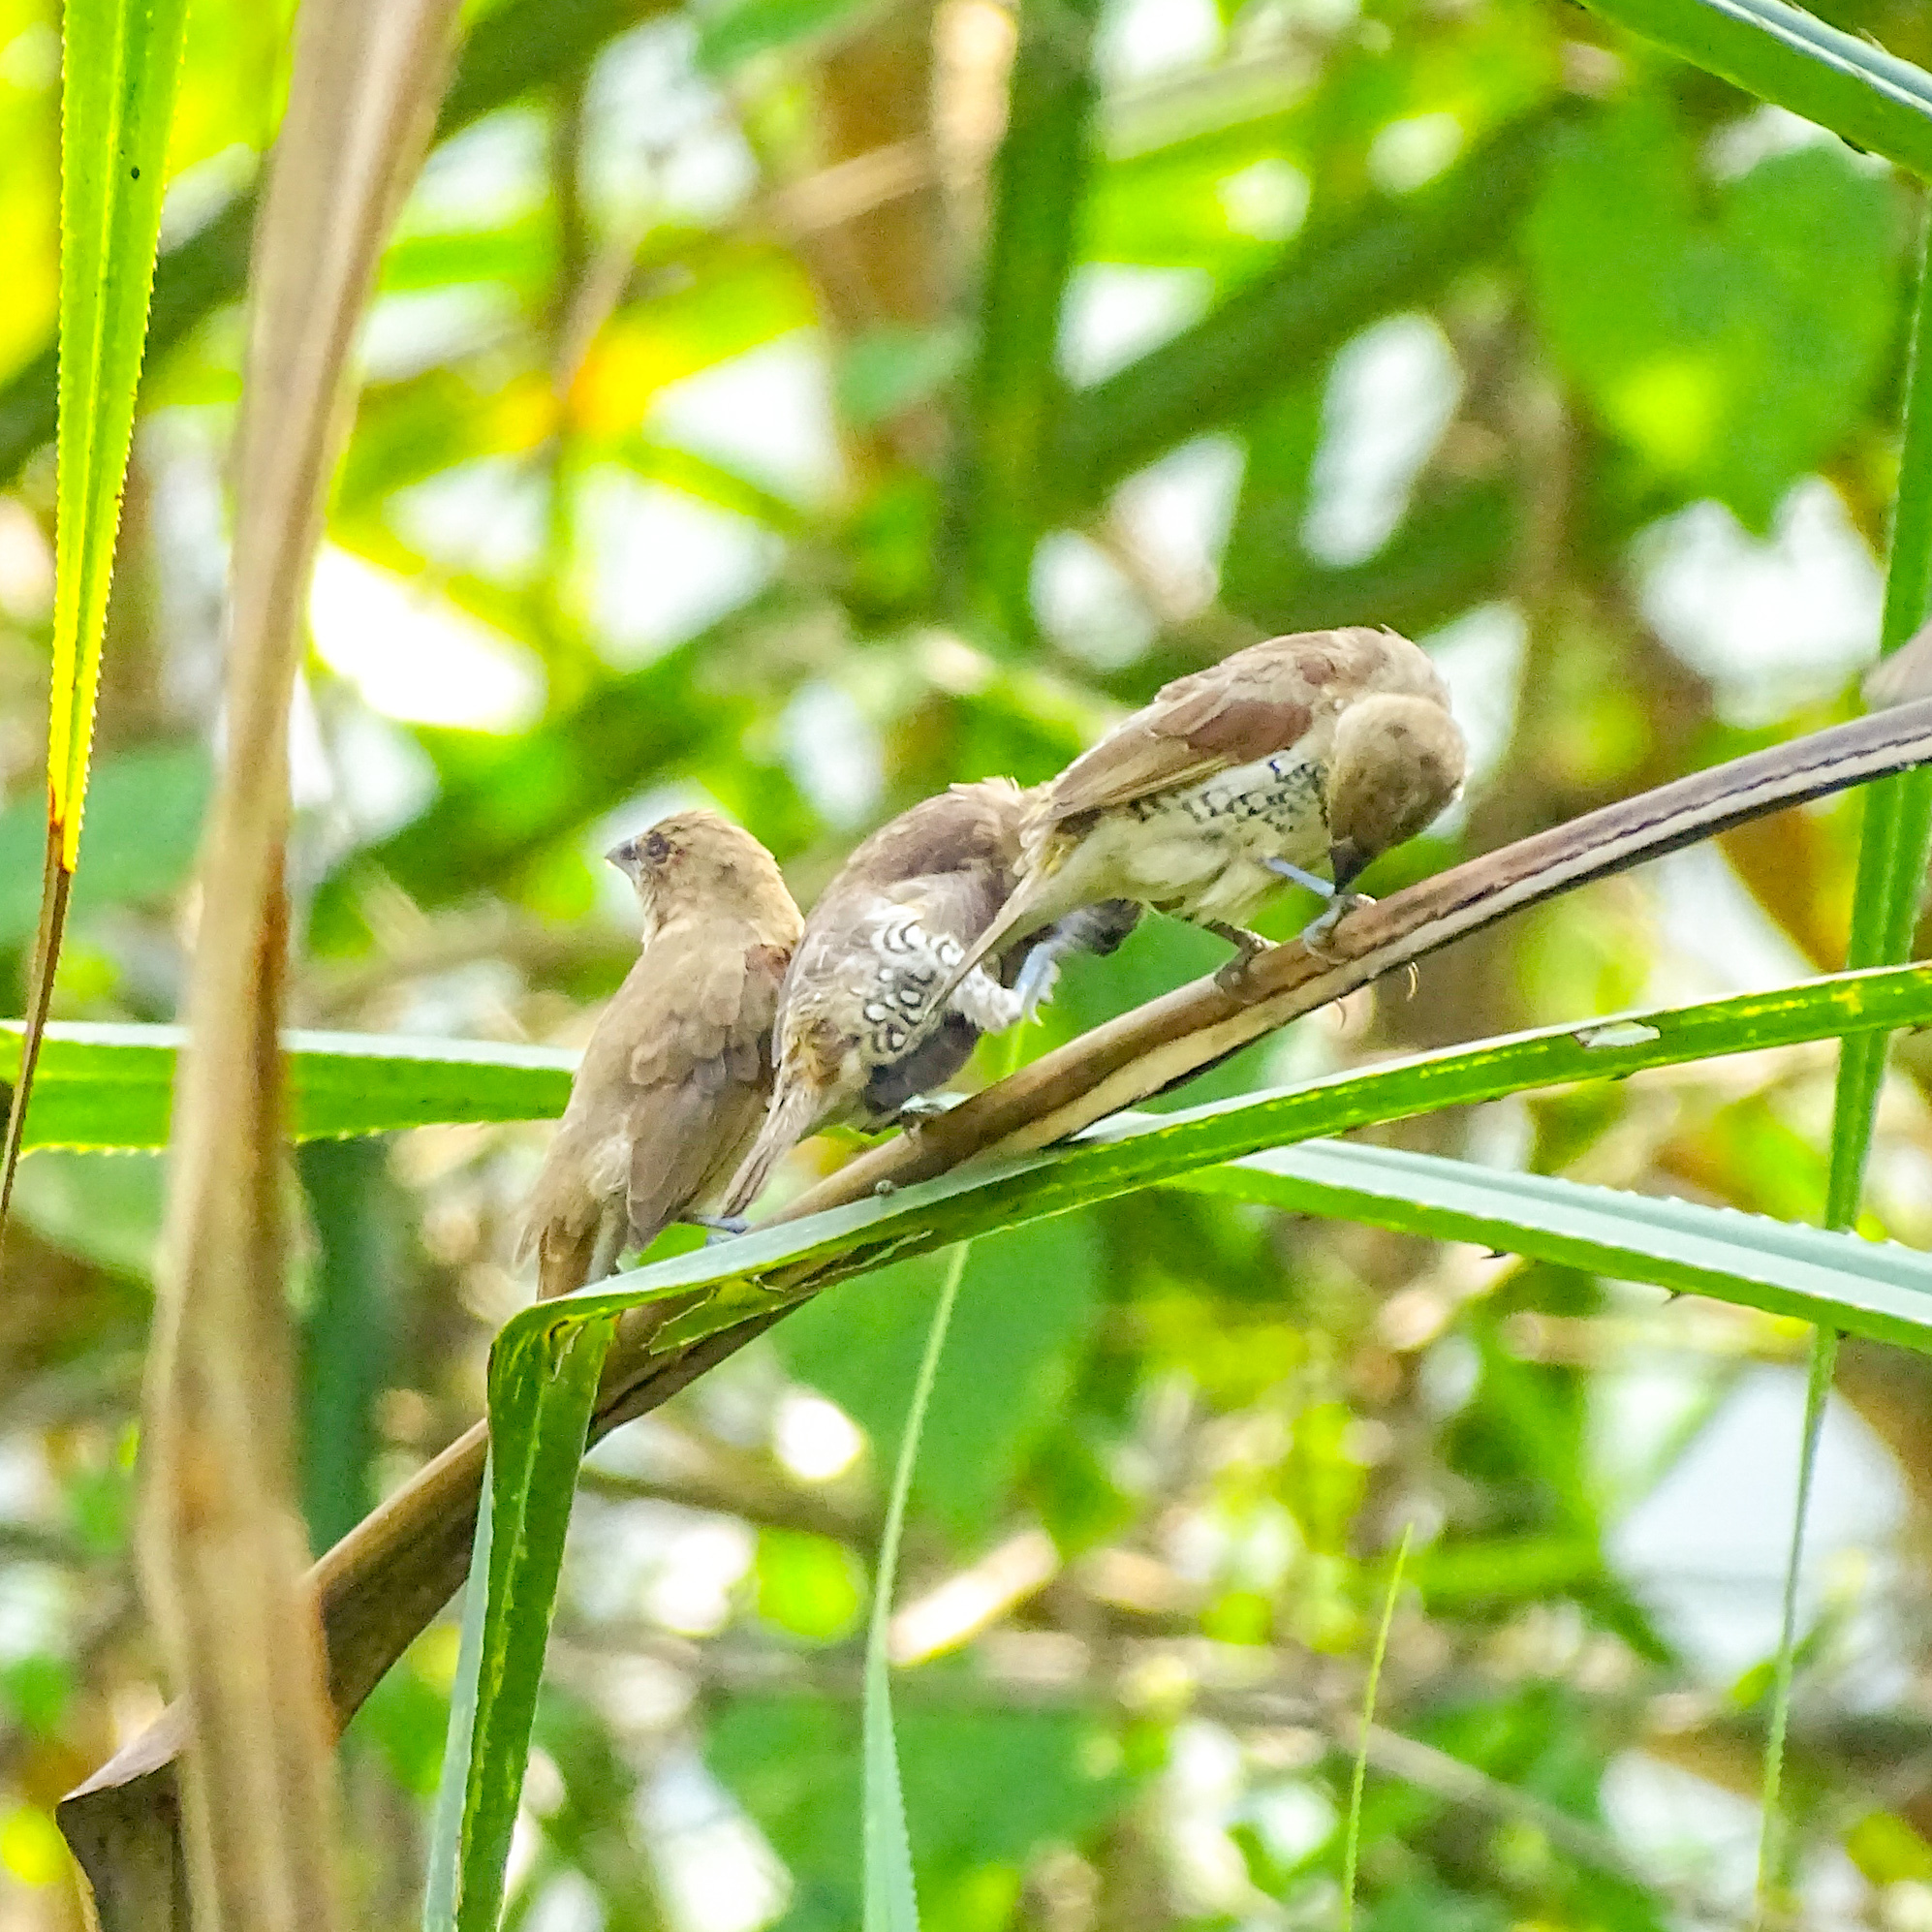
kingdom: Animalia
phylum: Chordata
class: Aves
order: Passeriformes
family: Estrildidae
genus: Lonchura
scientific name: Lonchura punctulata
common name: Scaly-breasted munia
